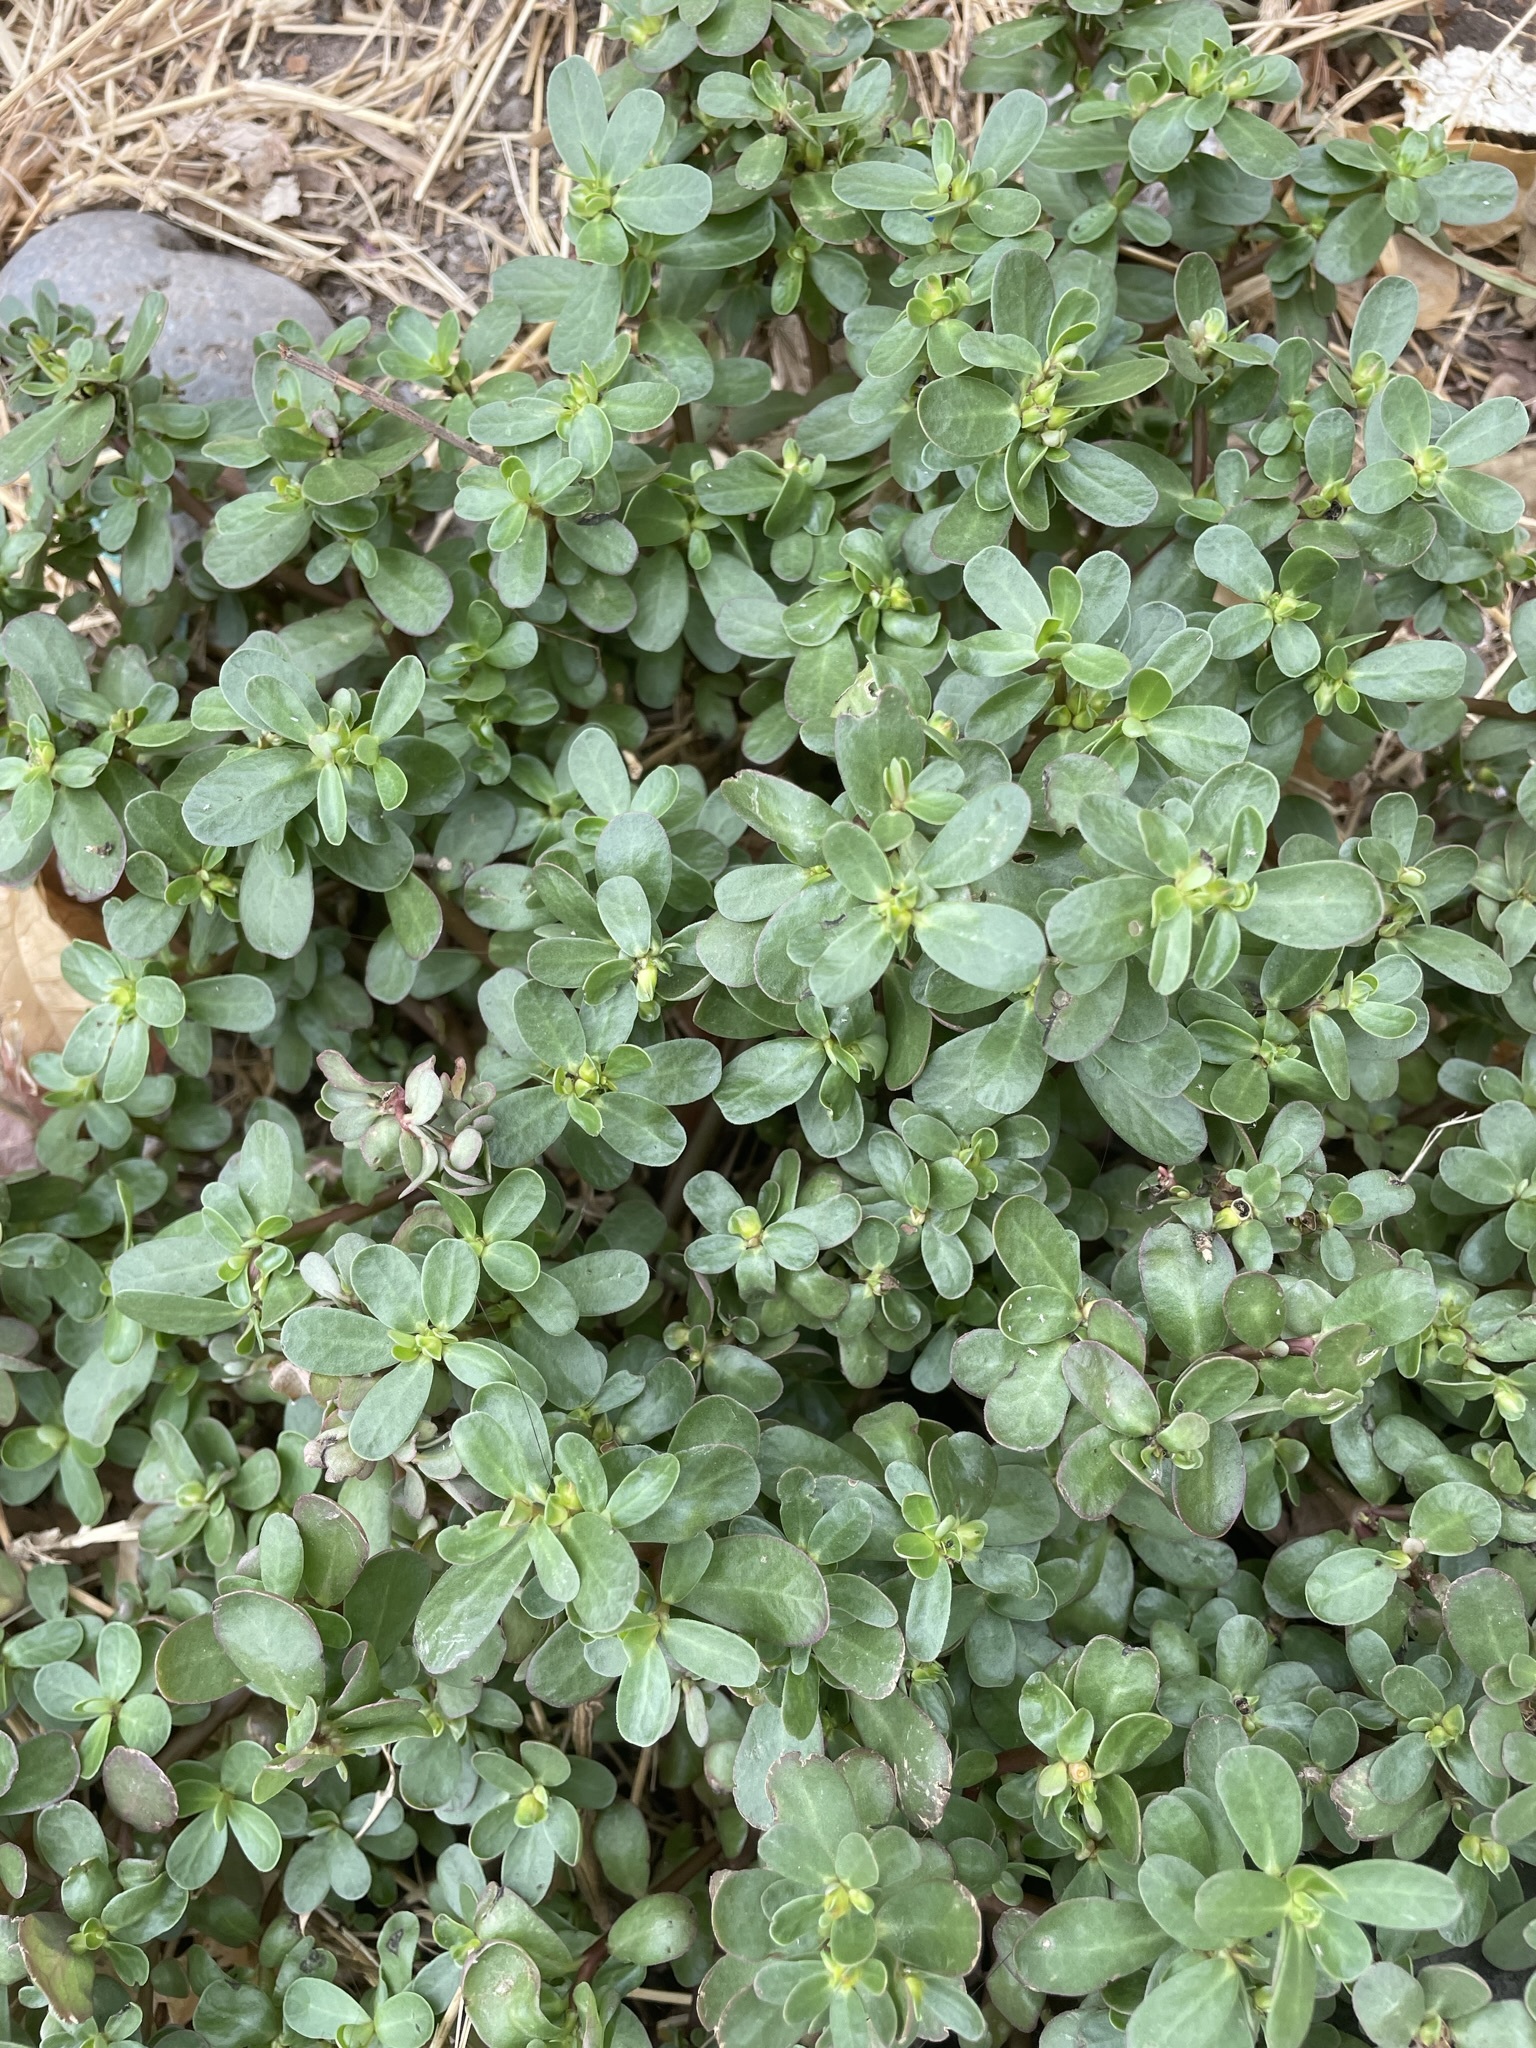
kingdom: Plantae
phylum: Tracheophyta
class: Magnoliopsida
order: Caryophyllales
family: Portulacaceae
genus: Portulaca
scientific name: Portulaca oleracea
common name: Common purslane
